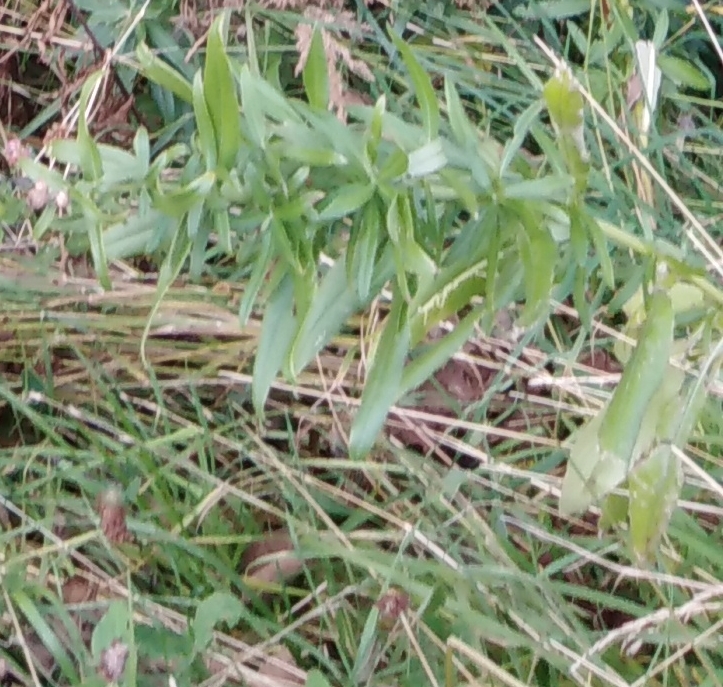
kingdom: Plantae
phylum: Tracheophyta
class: Magnoliopsida
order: Asterales
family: Asteraceae
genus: Cirsium
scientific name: Cirsium arvense
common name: Creeping thistle
